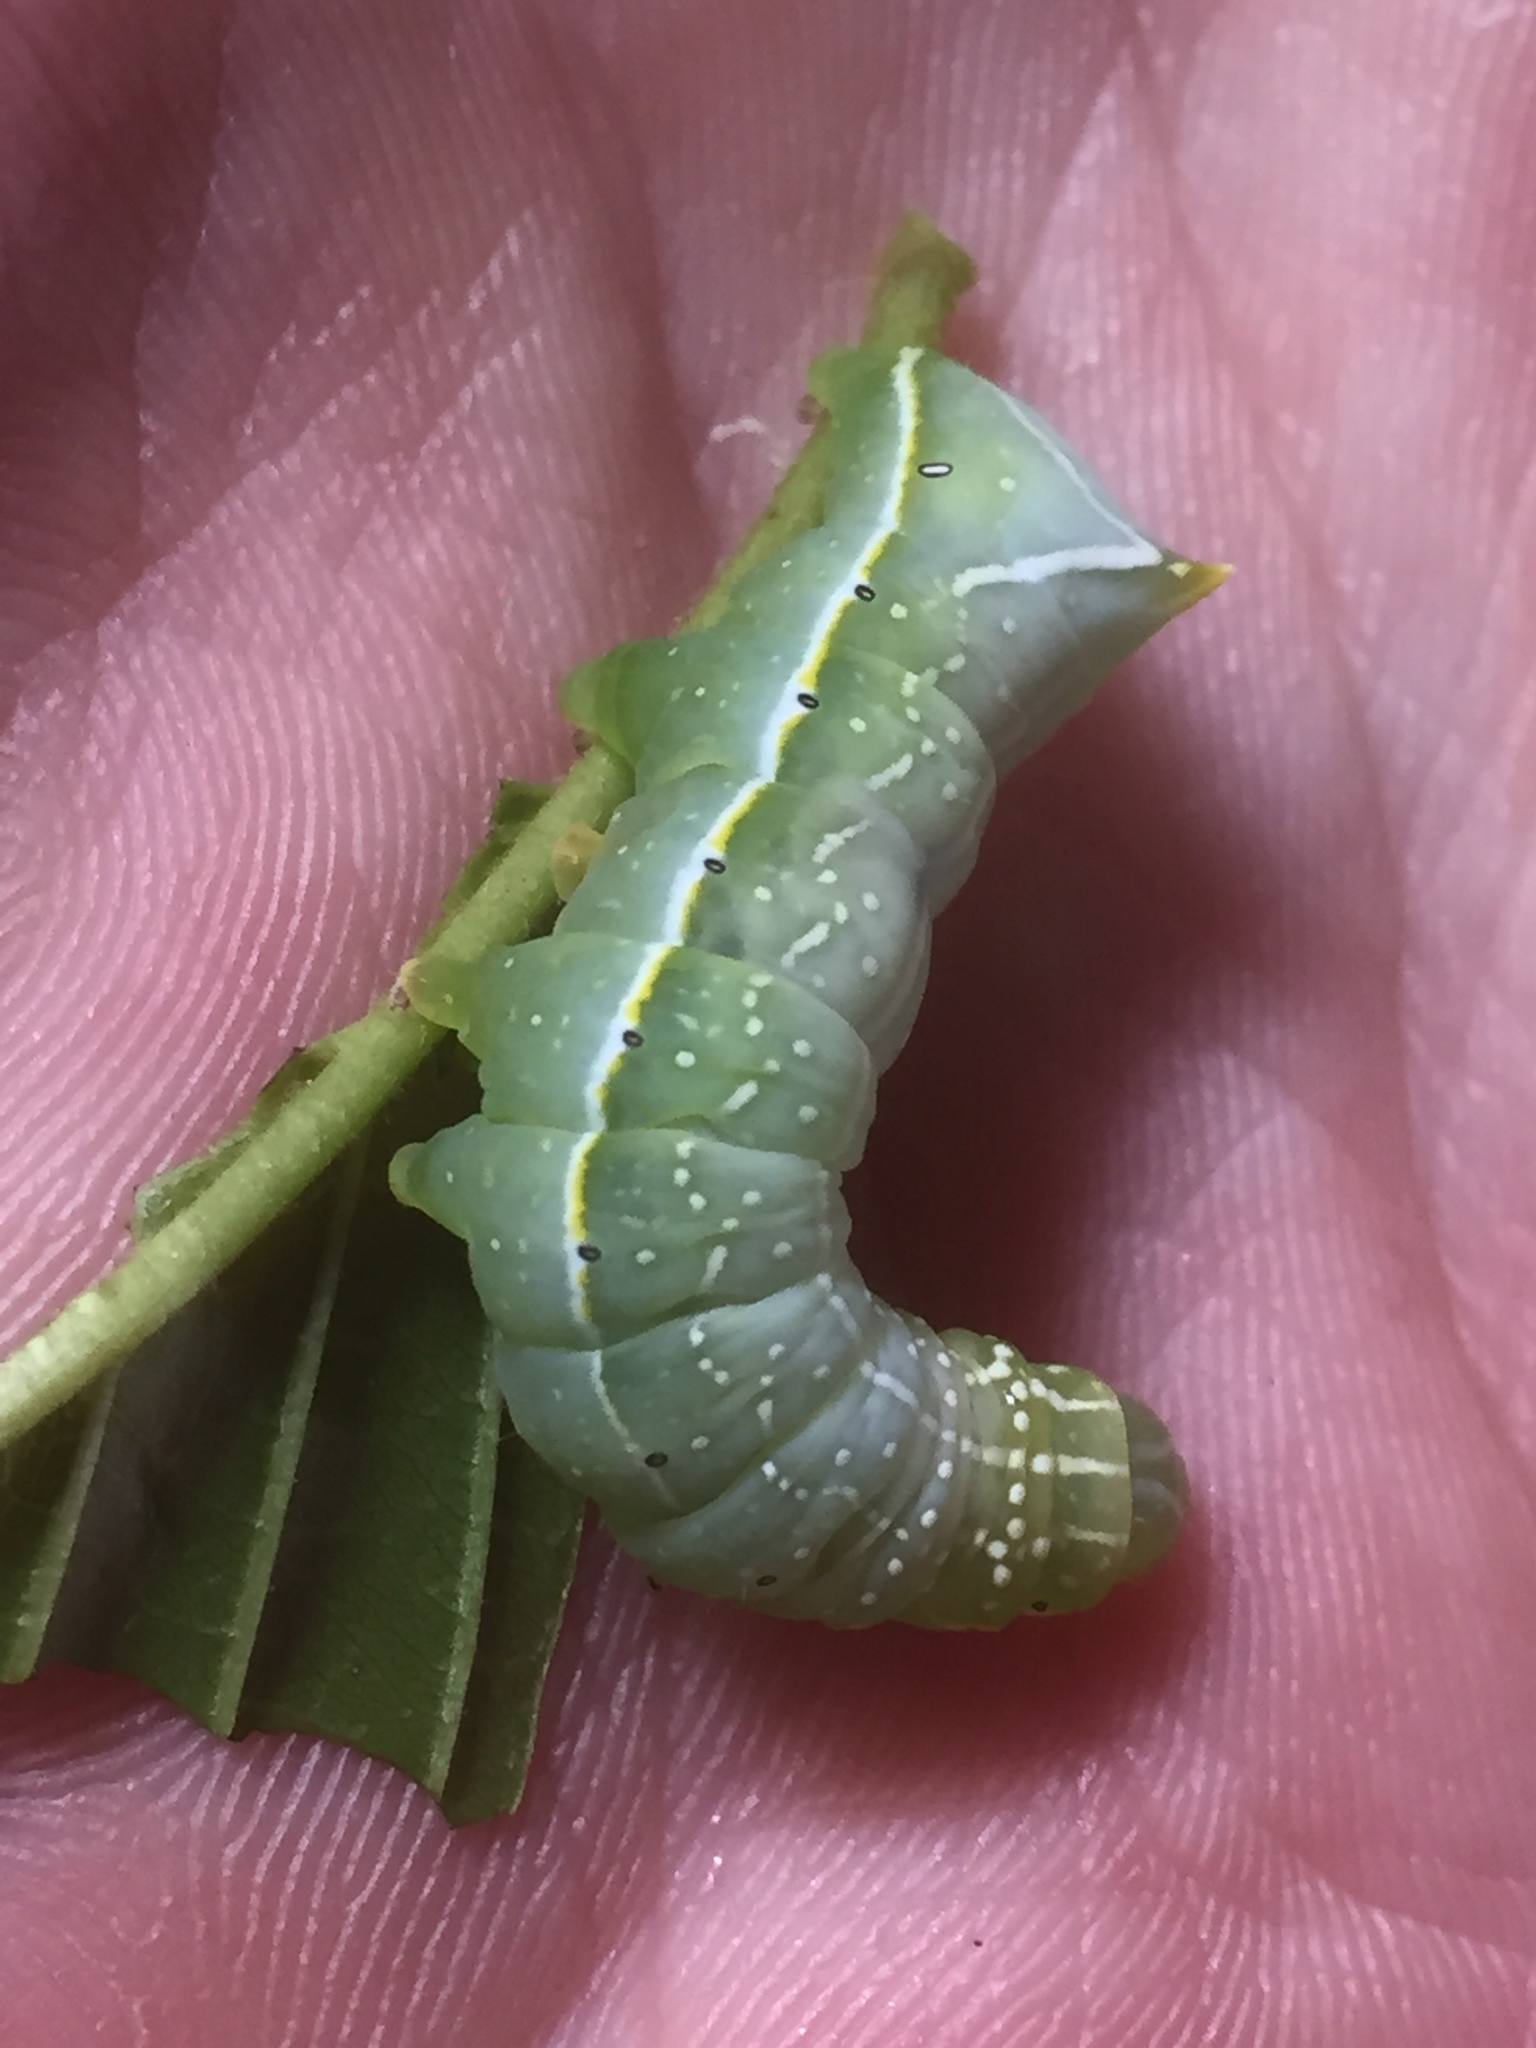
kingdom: Animalia
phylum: Arthropoda
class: Insecta
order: Lepidoptera
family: Noctuidae
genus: Amphipyra
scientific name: Amphipyra pyramidea
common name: Copper underwing
